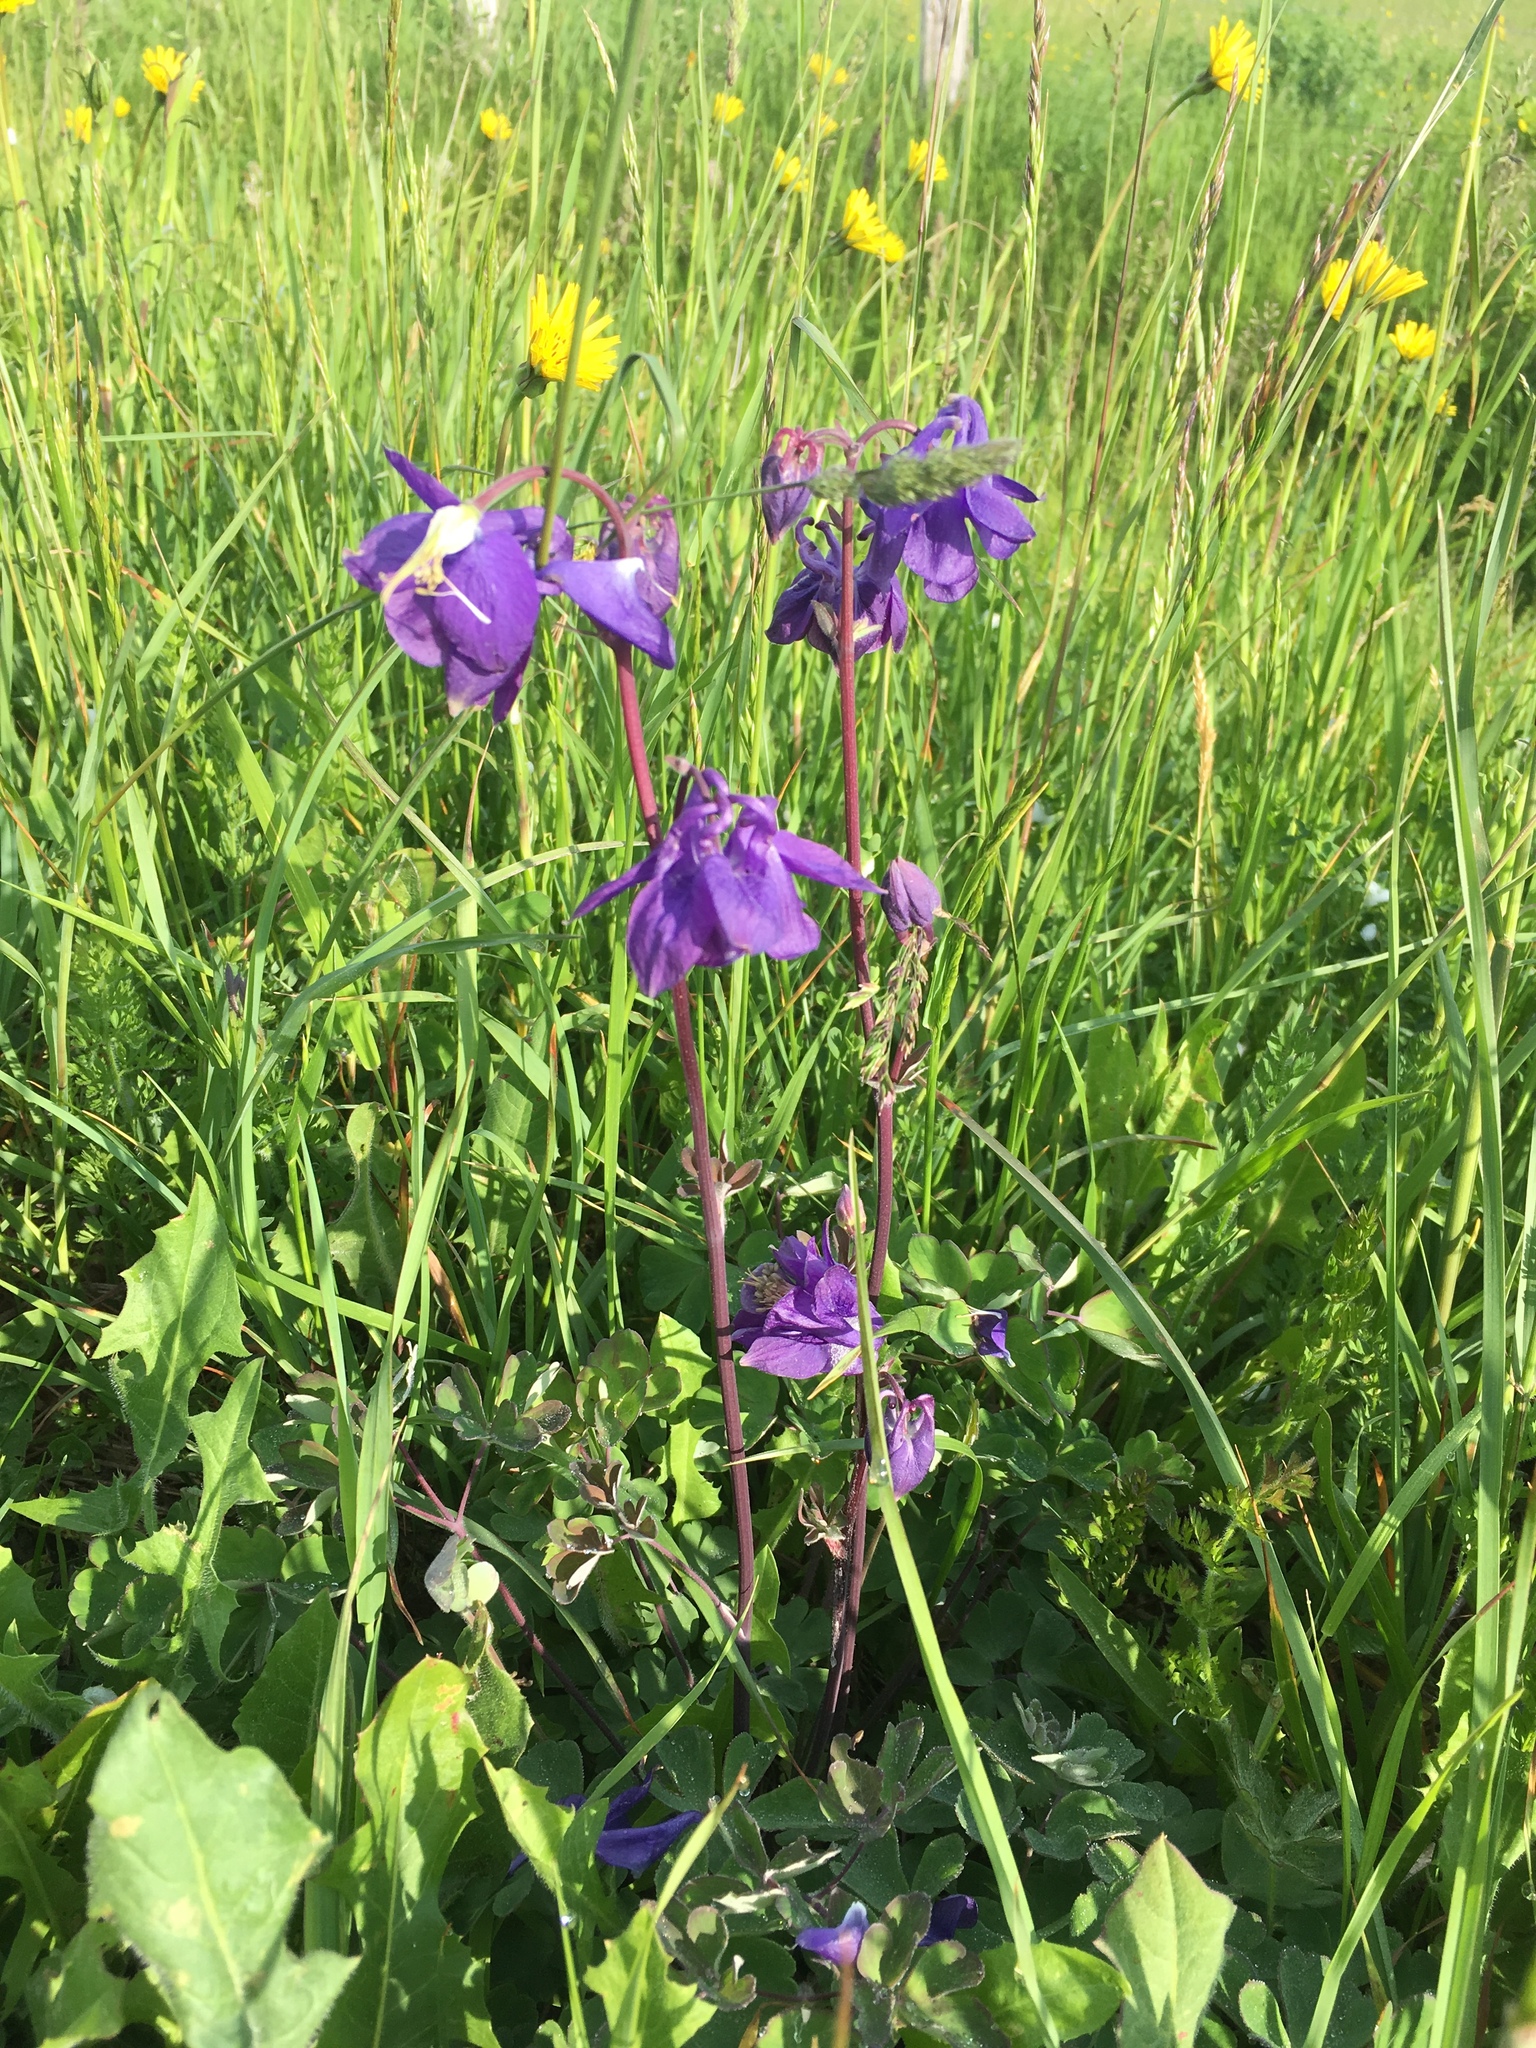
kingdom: Plantae
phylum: Tracheophyta
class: Magnoliopsida
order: Ranunculales
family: Ranunculaceae
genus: Aquilegia
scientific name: Aquilegia vulgaris
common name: Columbine
